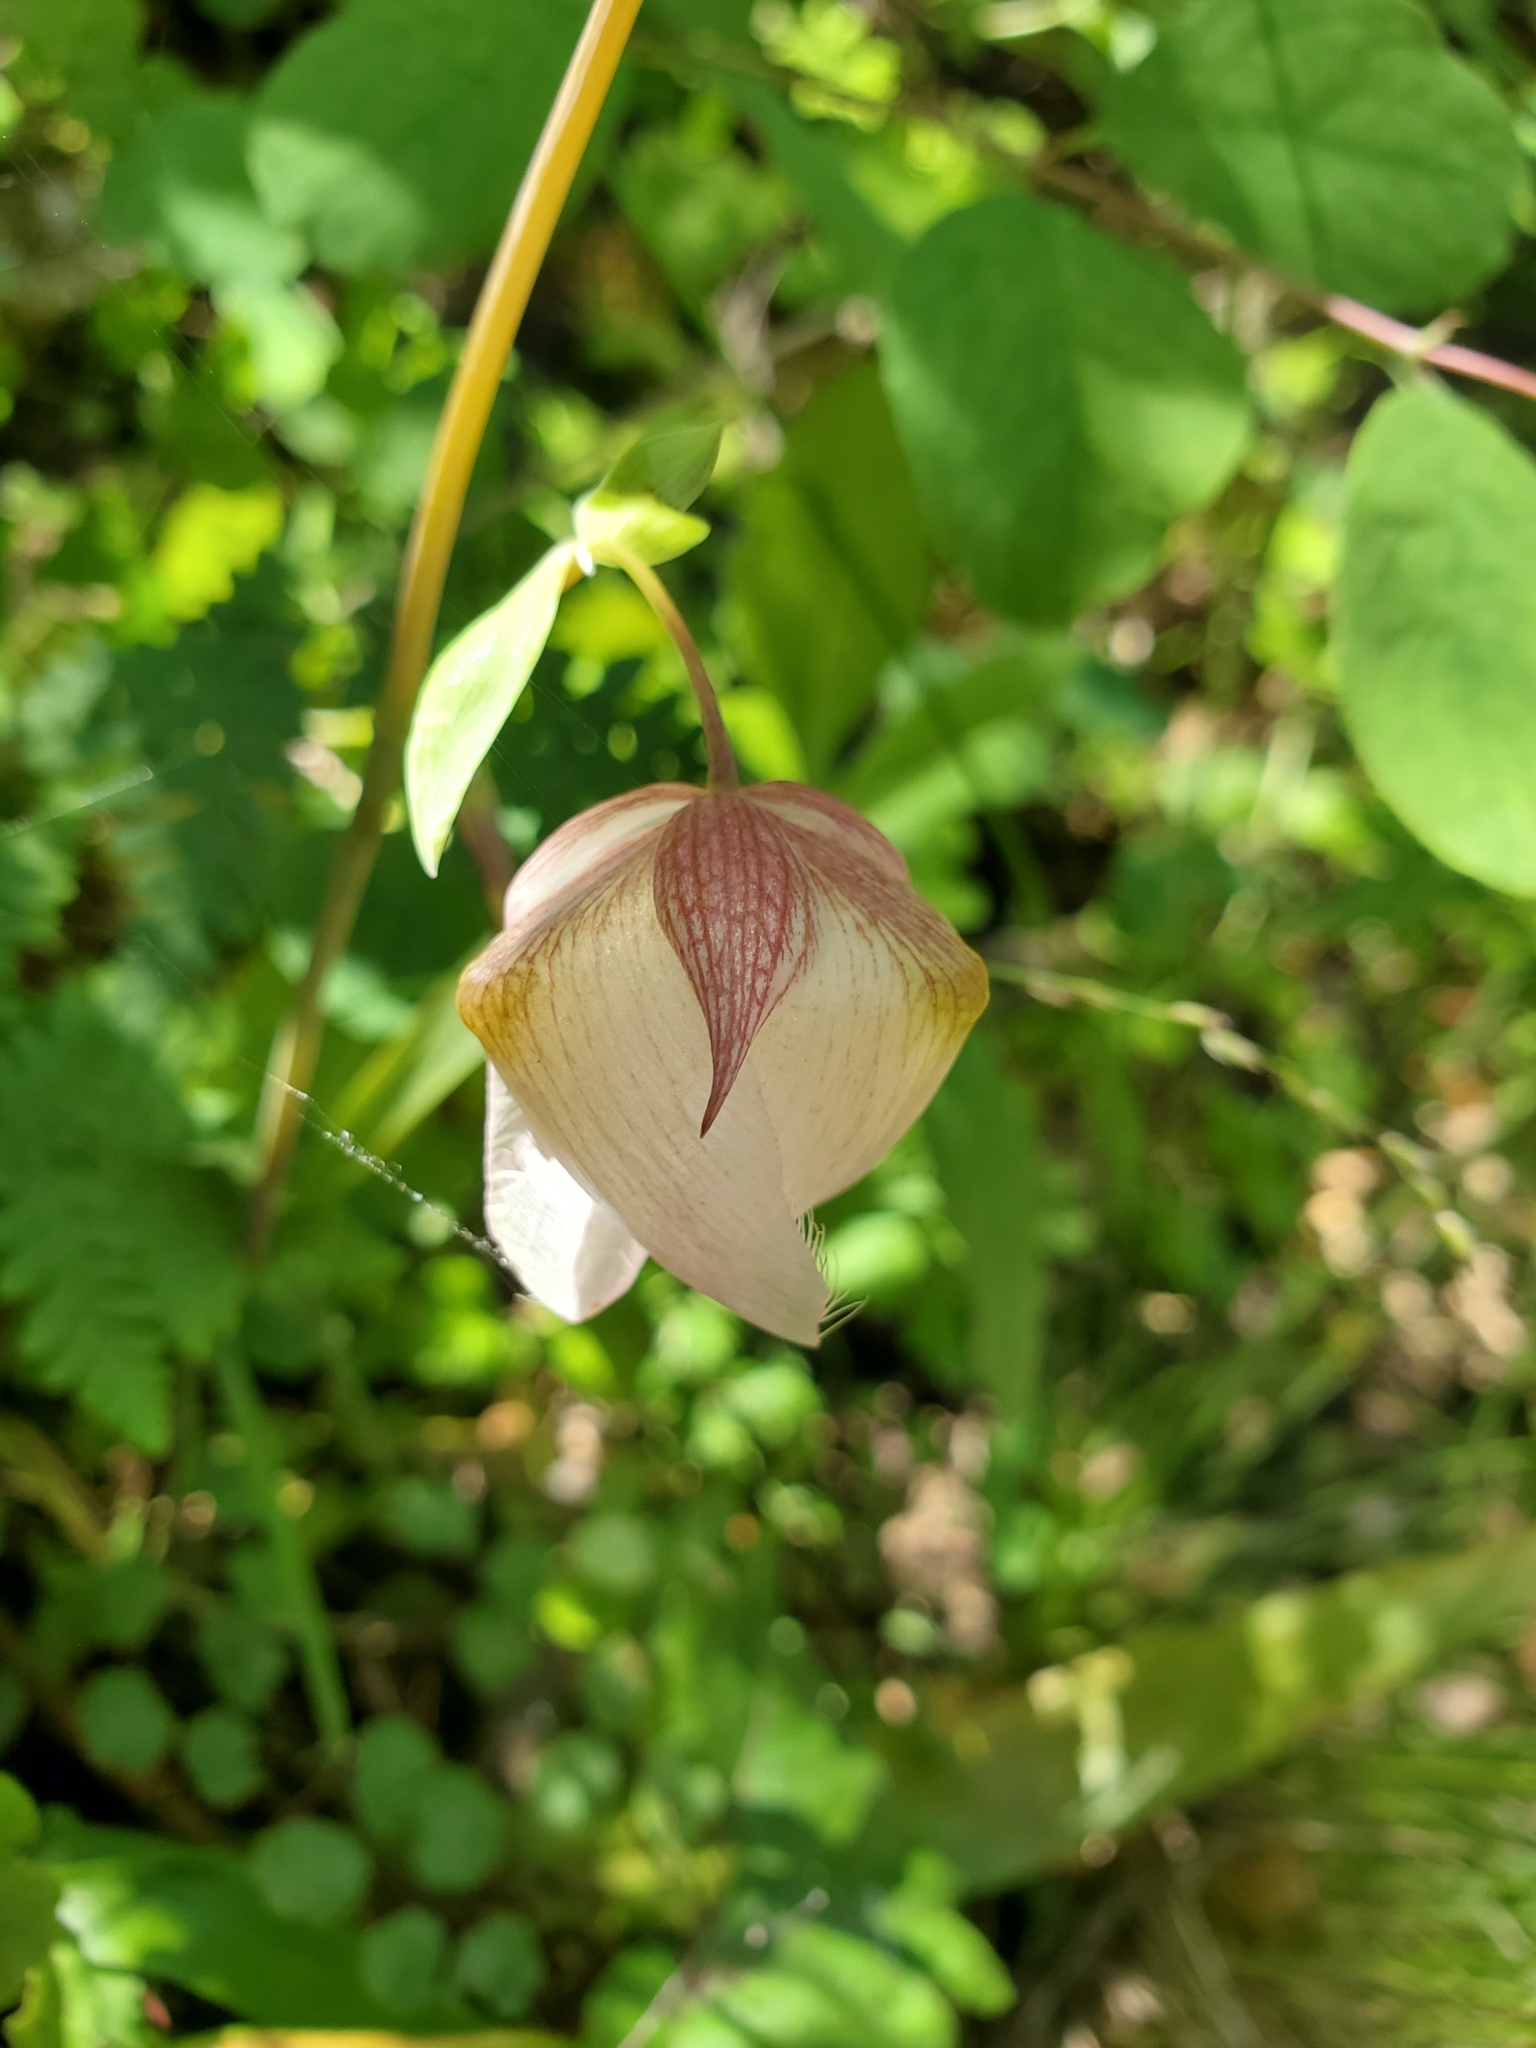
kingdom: Plantae
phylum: Tracheophyta
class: Liliopsida
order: Liliales
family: Liliaceae
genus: Calochortus
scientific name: Calochortus albus
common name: Fairy-lantern
